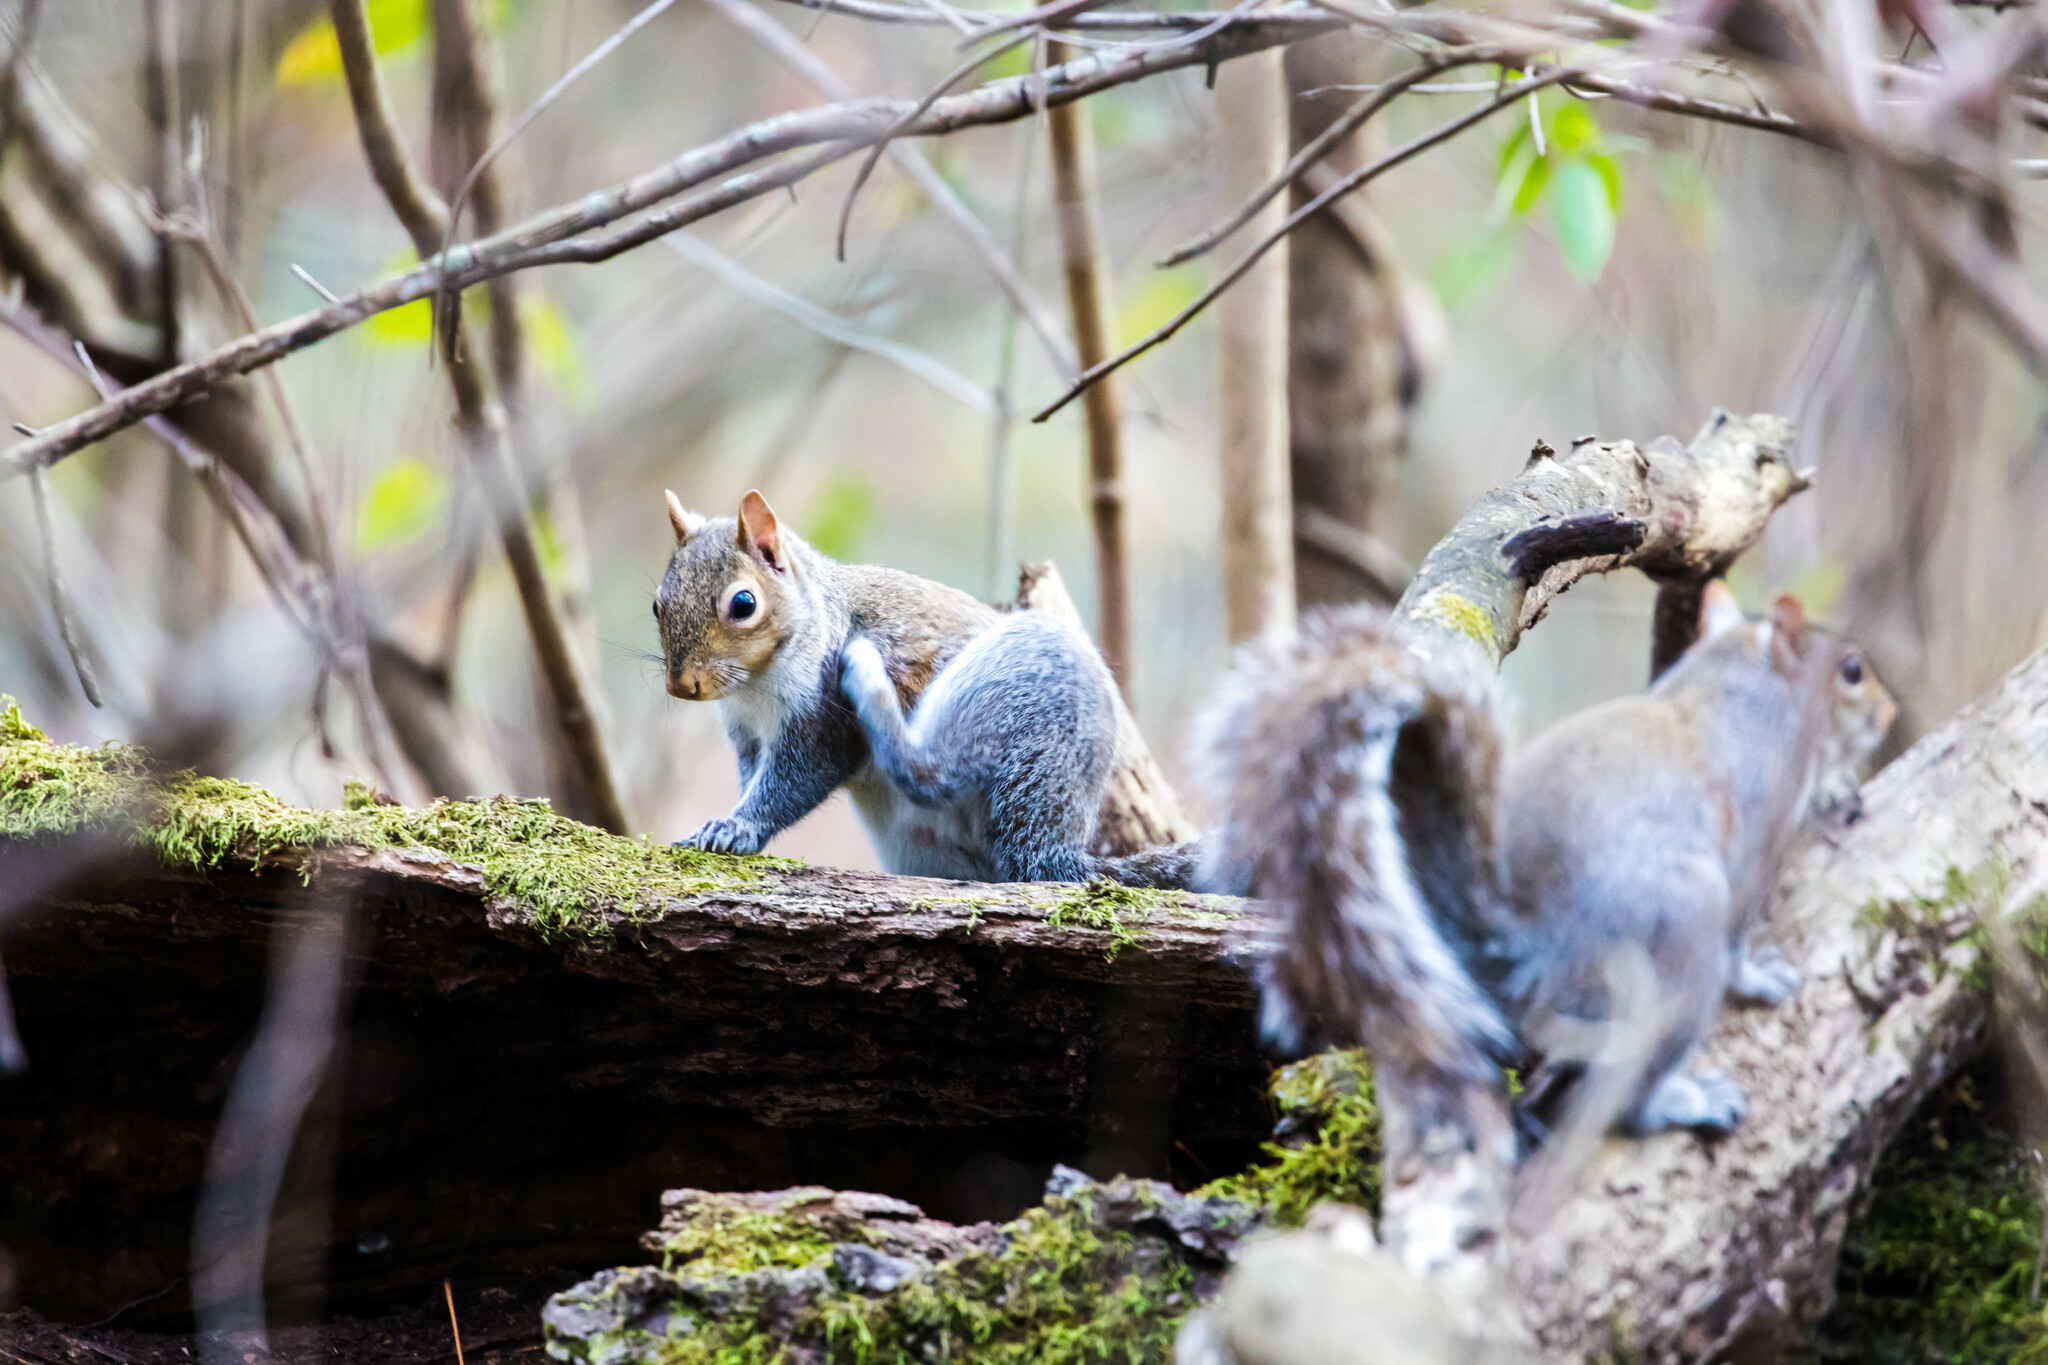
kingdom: Animalia
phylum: Chordata
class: Mammalia
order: Rodentia
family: Sciuridae
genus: Sciurus
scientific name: Sciurus carolinensis
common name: Eastern gray squirrel
